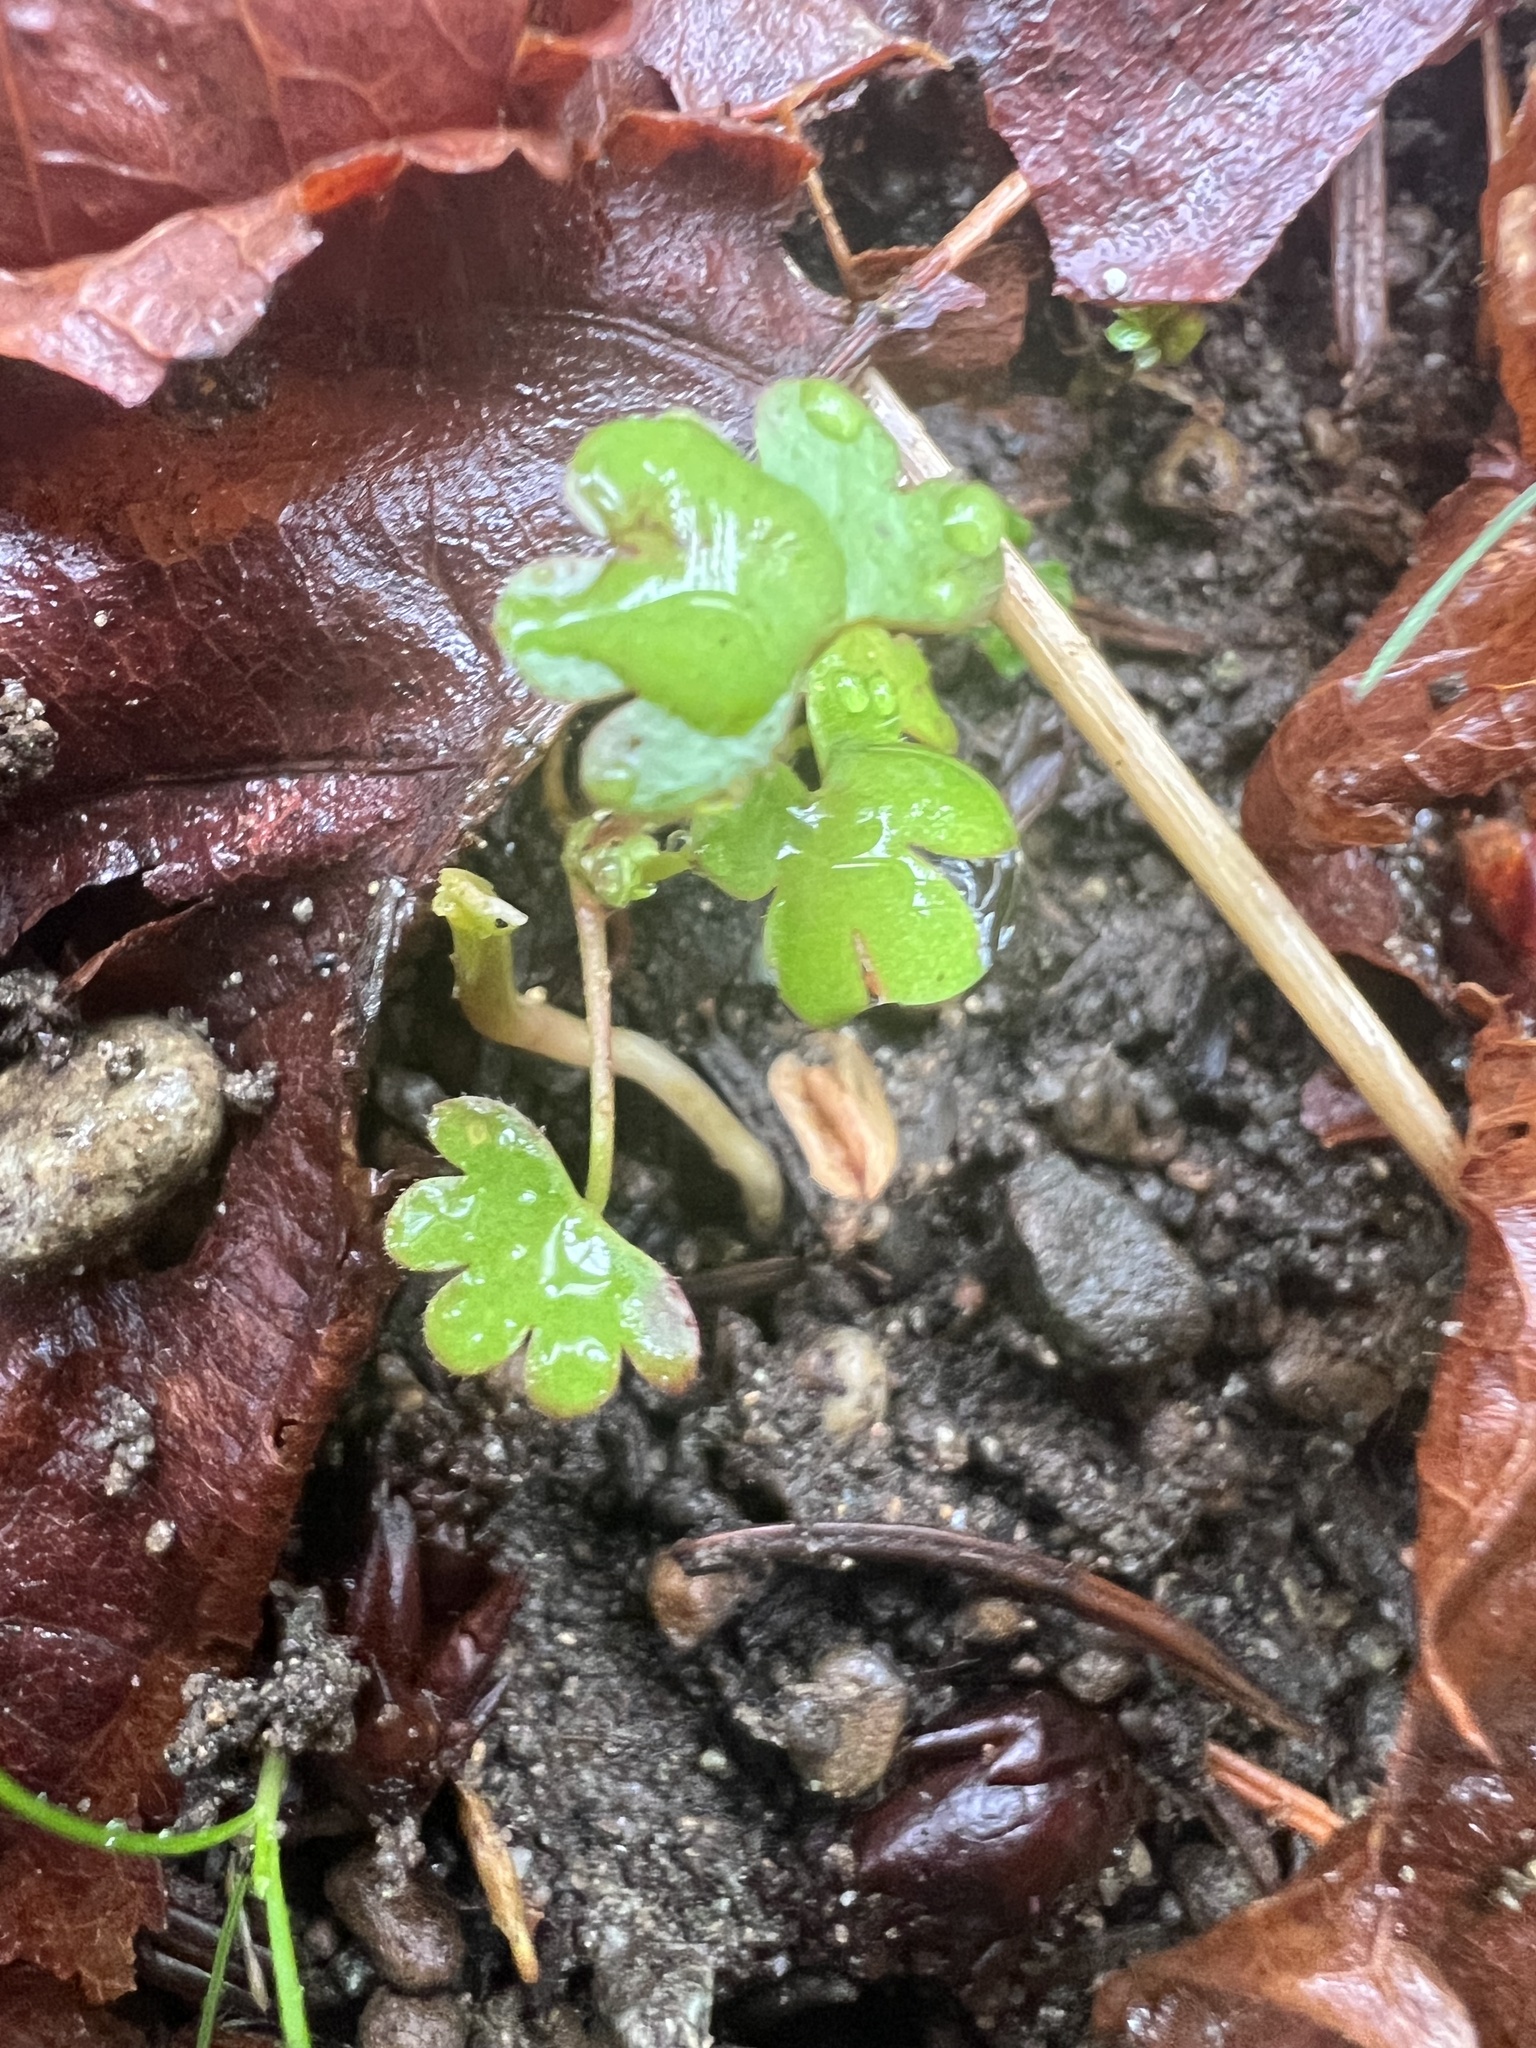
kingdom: Plantae
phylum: Tracheophyta
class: Magnoliopsida
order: Geraniales
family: Geraniaceae
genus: Geranium
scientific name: Geranium lucidum
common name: Shining crane's-bill
